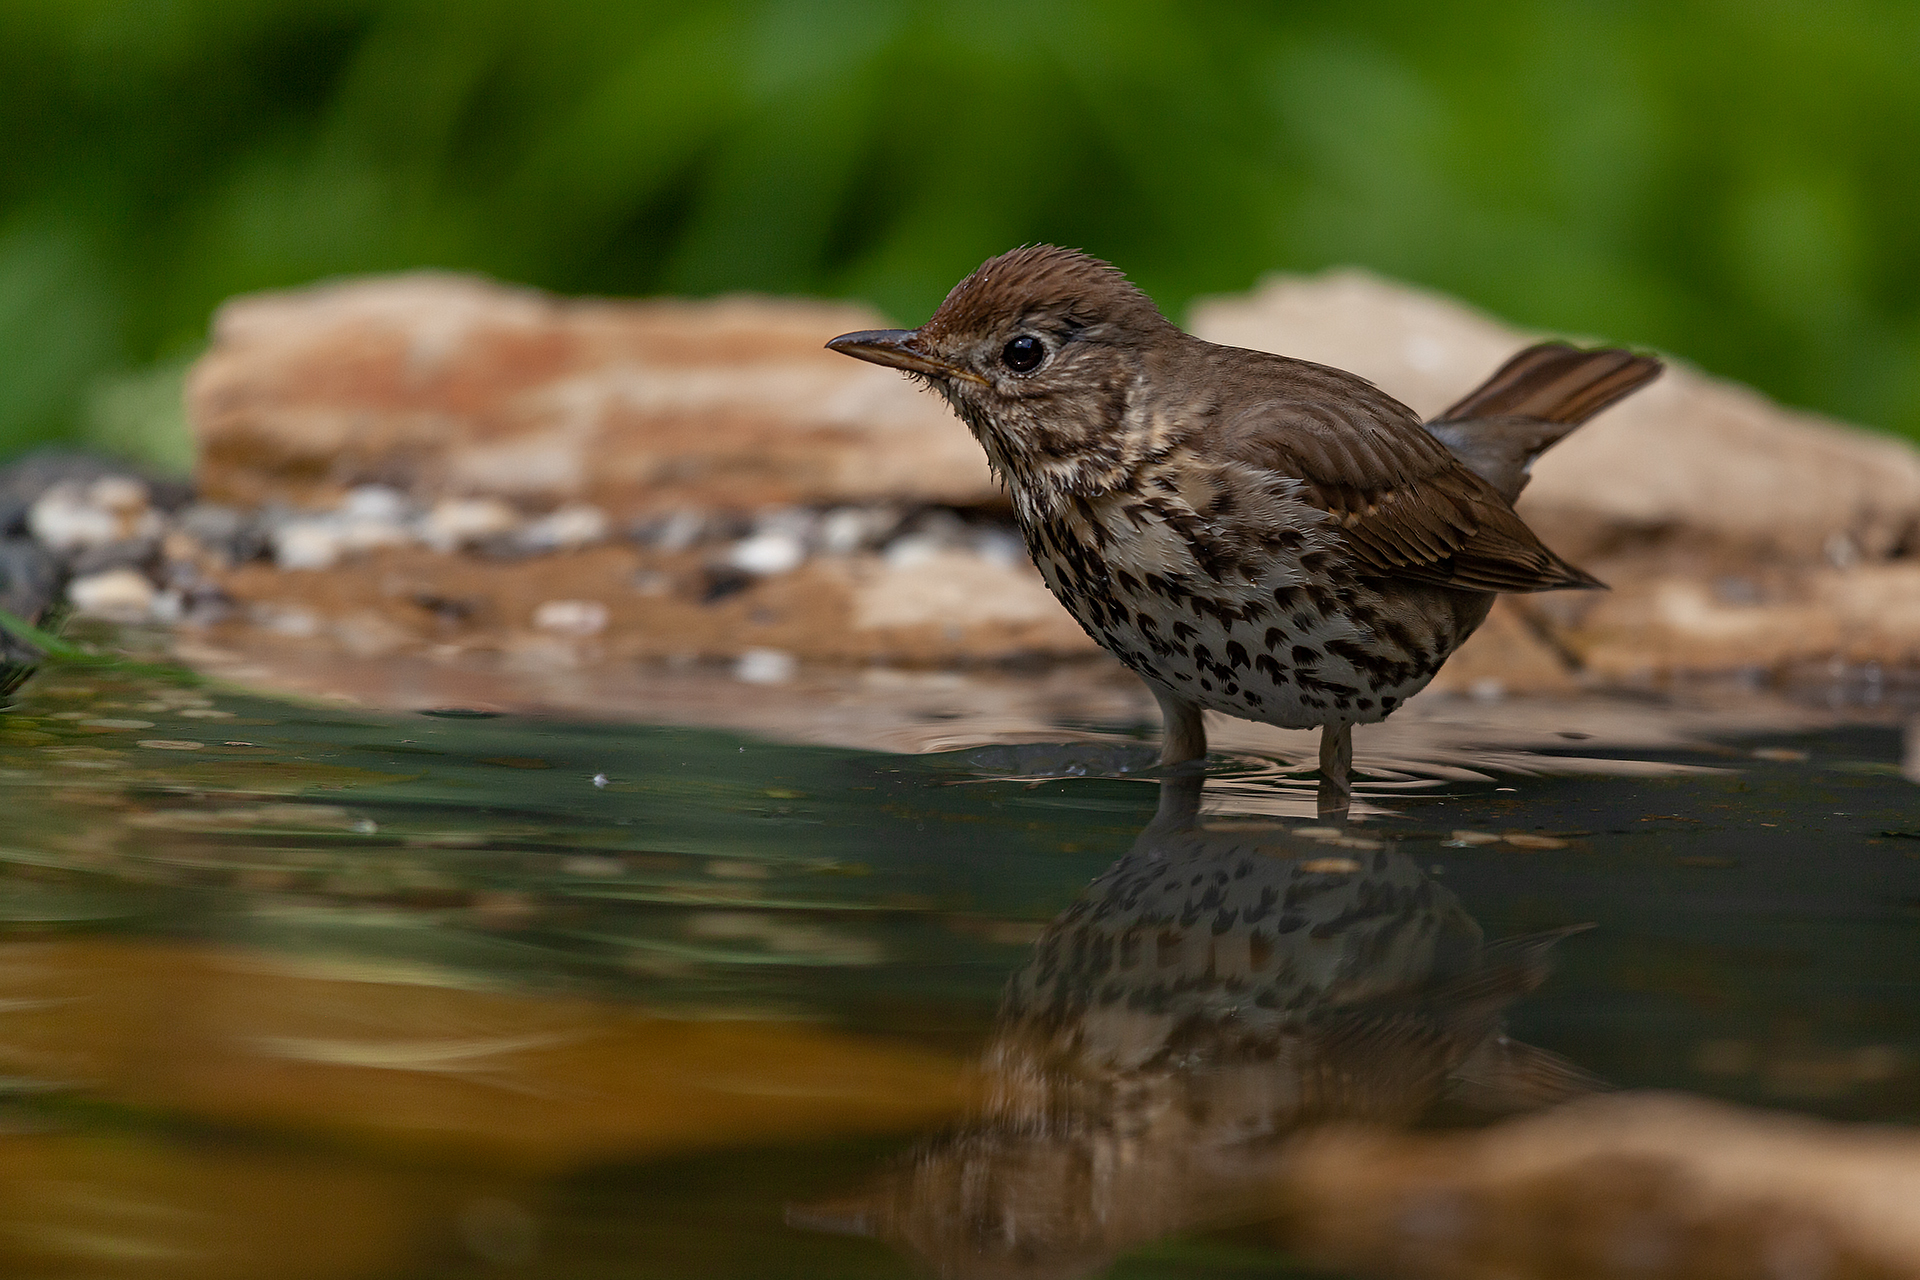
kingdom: Animalia
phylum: Chordata
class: Aves
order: Passeriformes
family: Turdidae
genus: Turdus
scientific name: Turdus philomelos
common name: Song thrush
